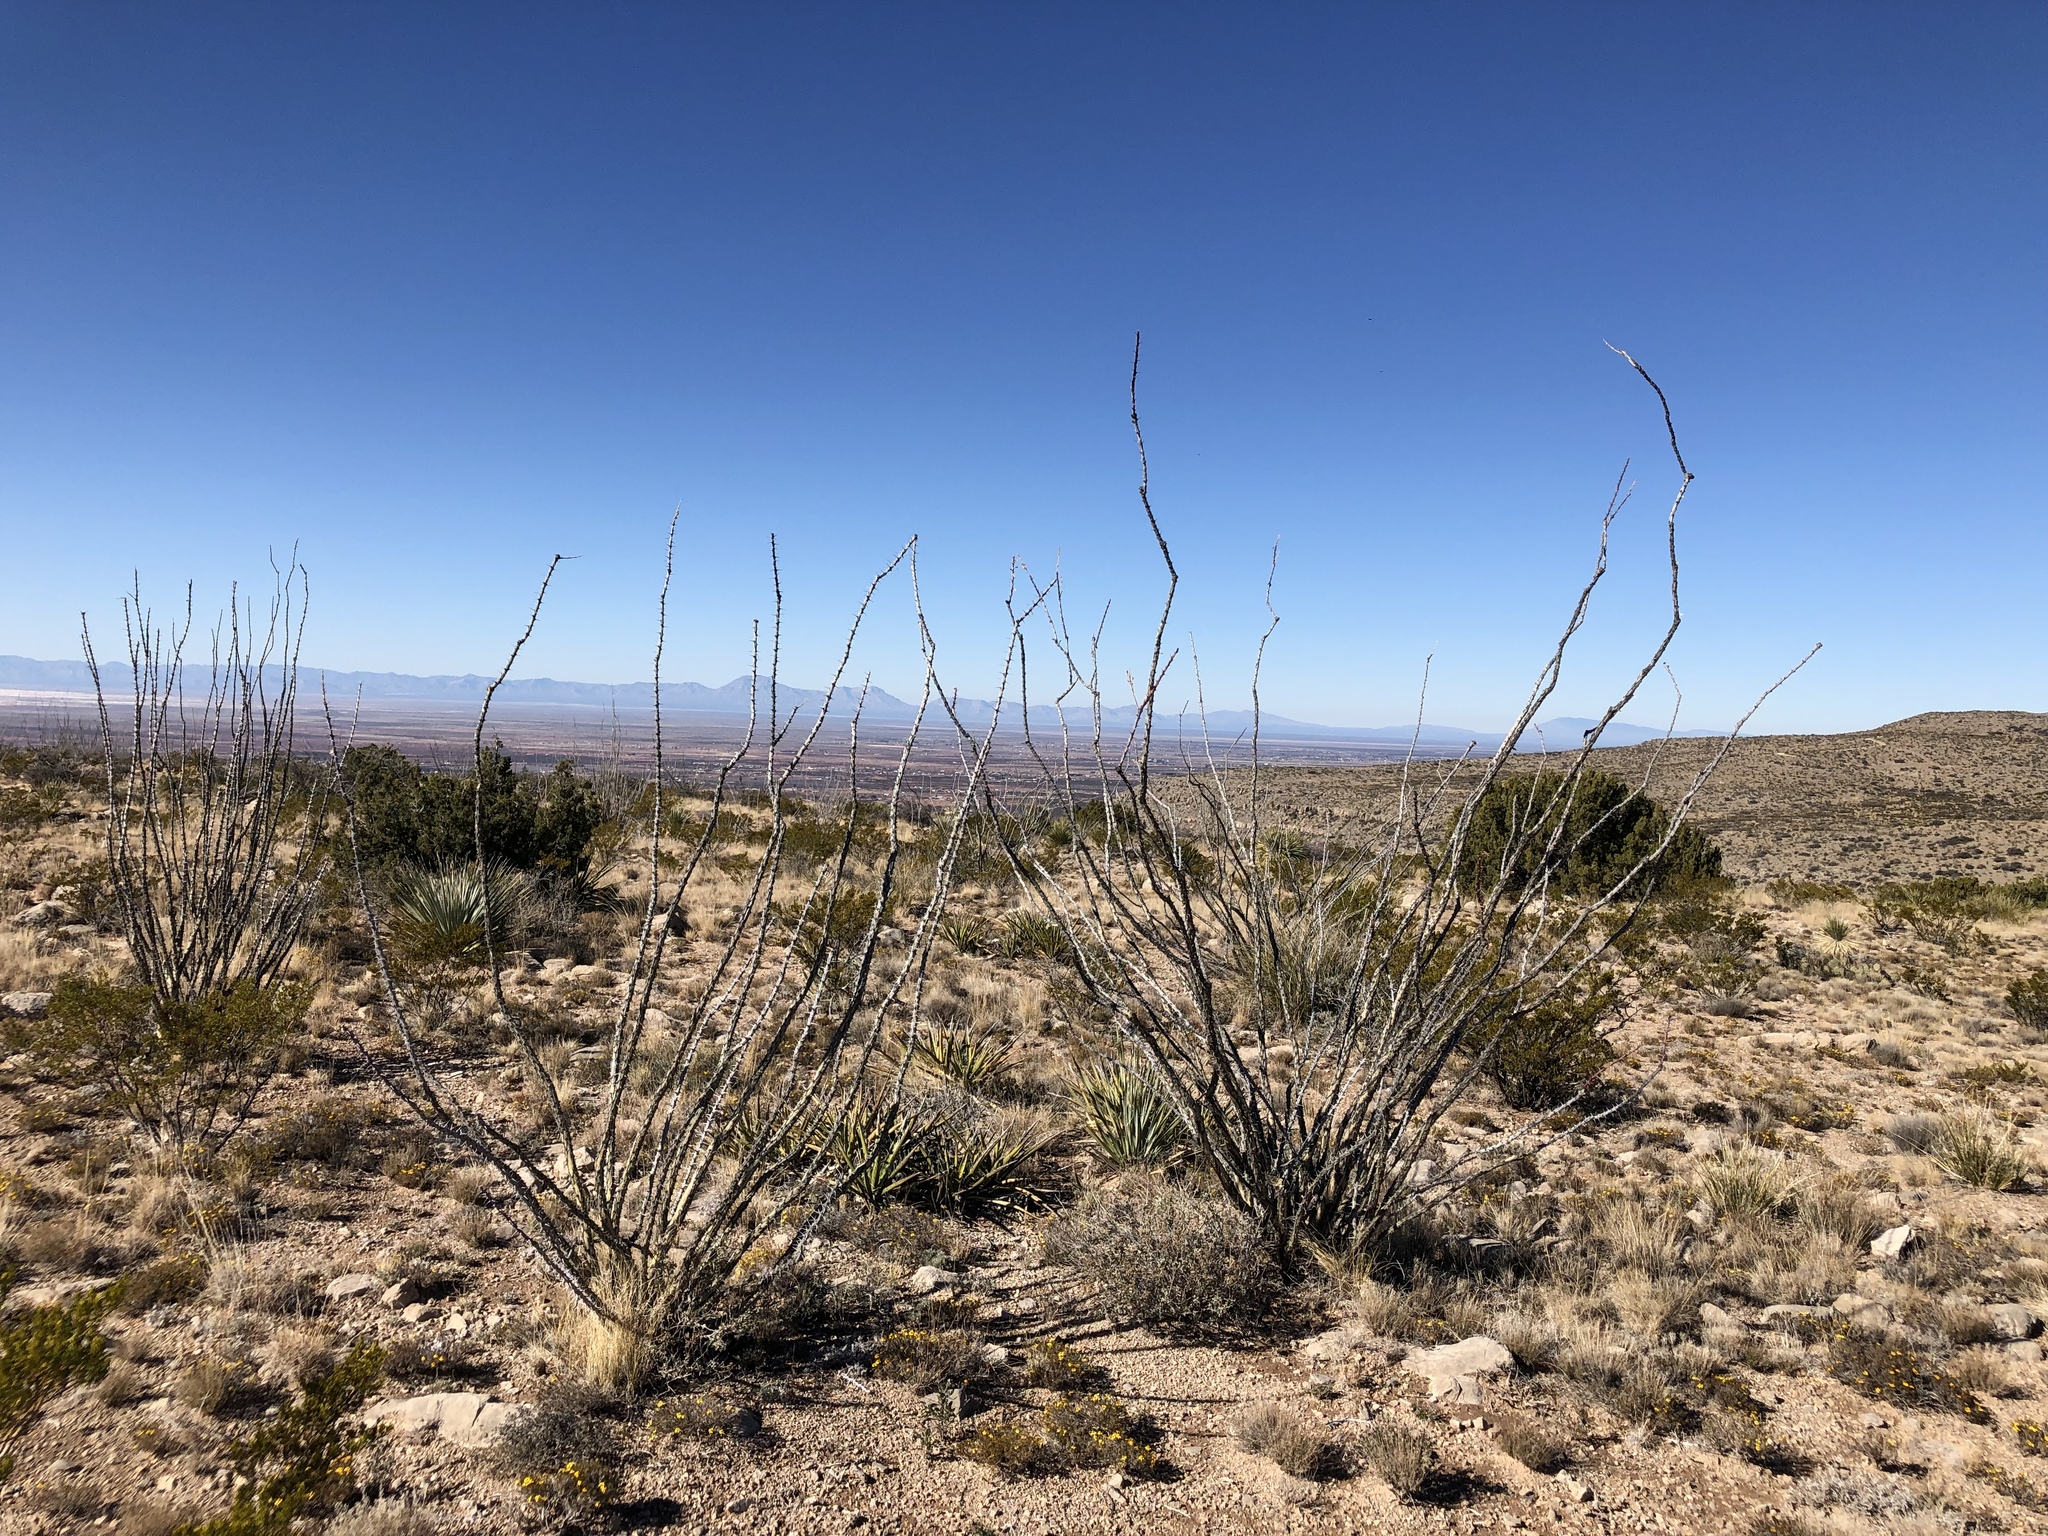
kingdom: Plantae
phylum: Tracheophyta
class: Magnoliopsida
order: Ericales
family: Fouquieriaceae
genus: Fouquieria
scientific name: Fouquieria splendens
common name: Vine-cactus
